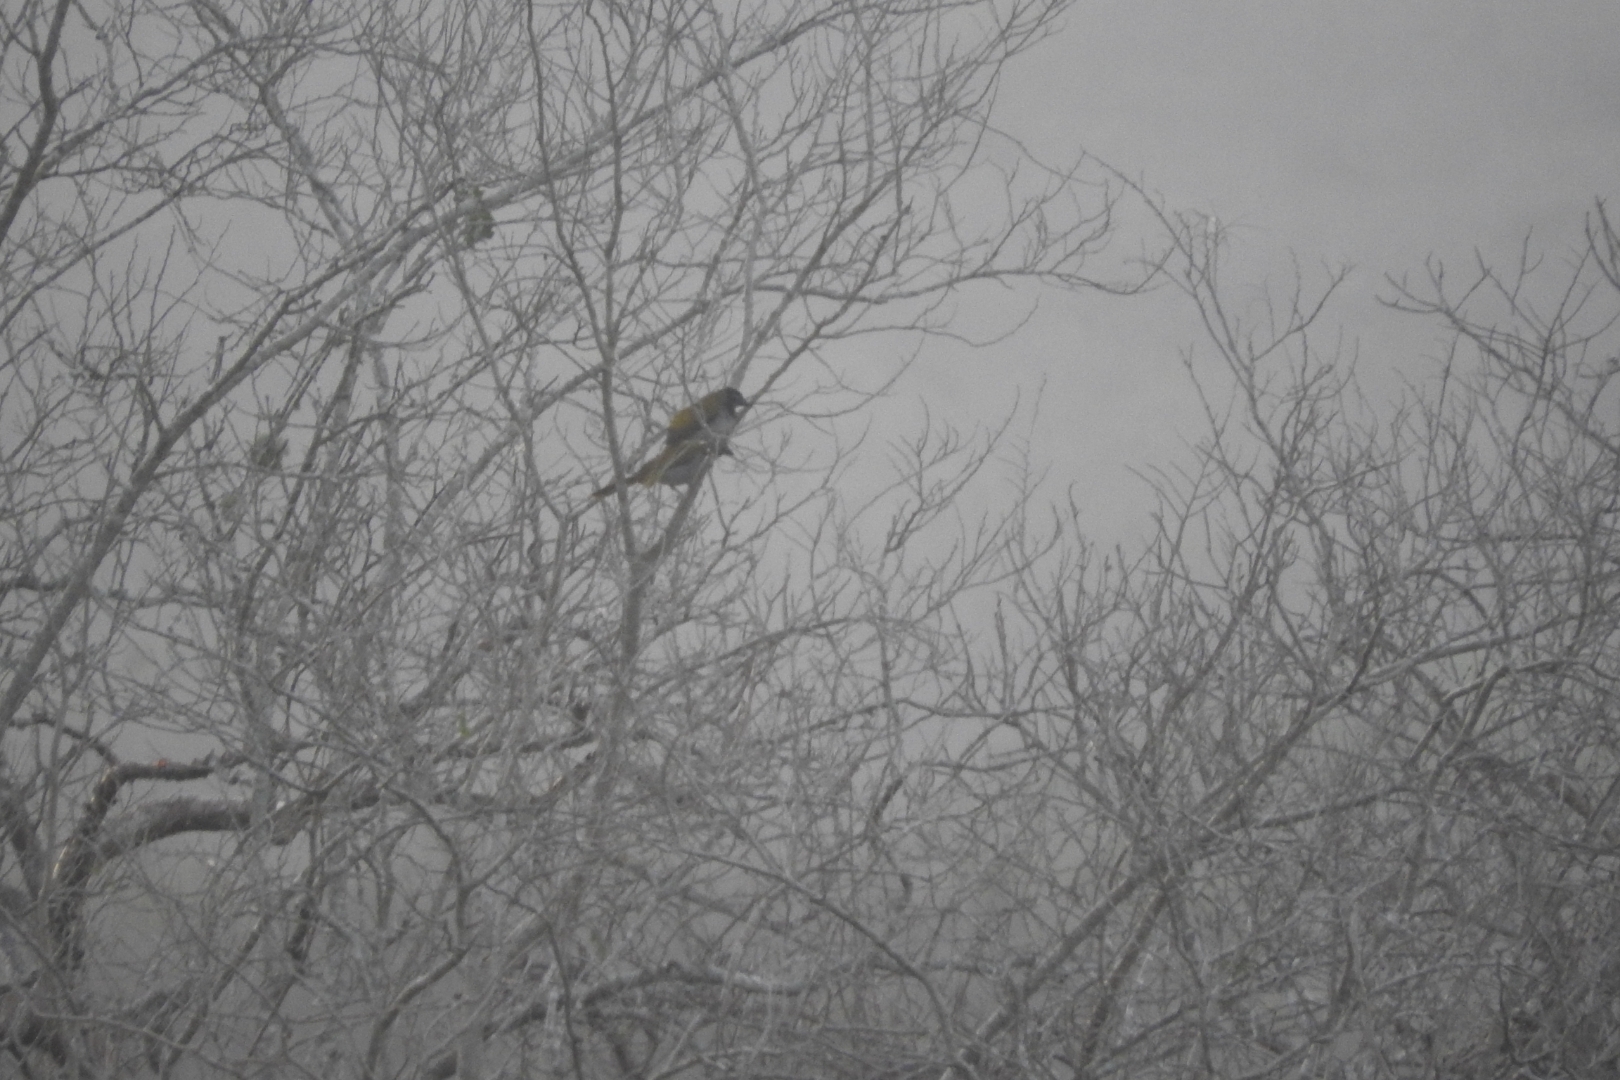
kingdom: Animalia
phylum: Chordata
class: Aves
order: Passeriformes
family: Thraupidae
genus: Saltator
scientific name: Saltator atriceps
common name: Black-headed saltator
